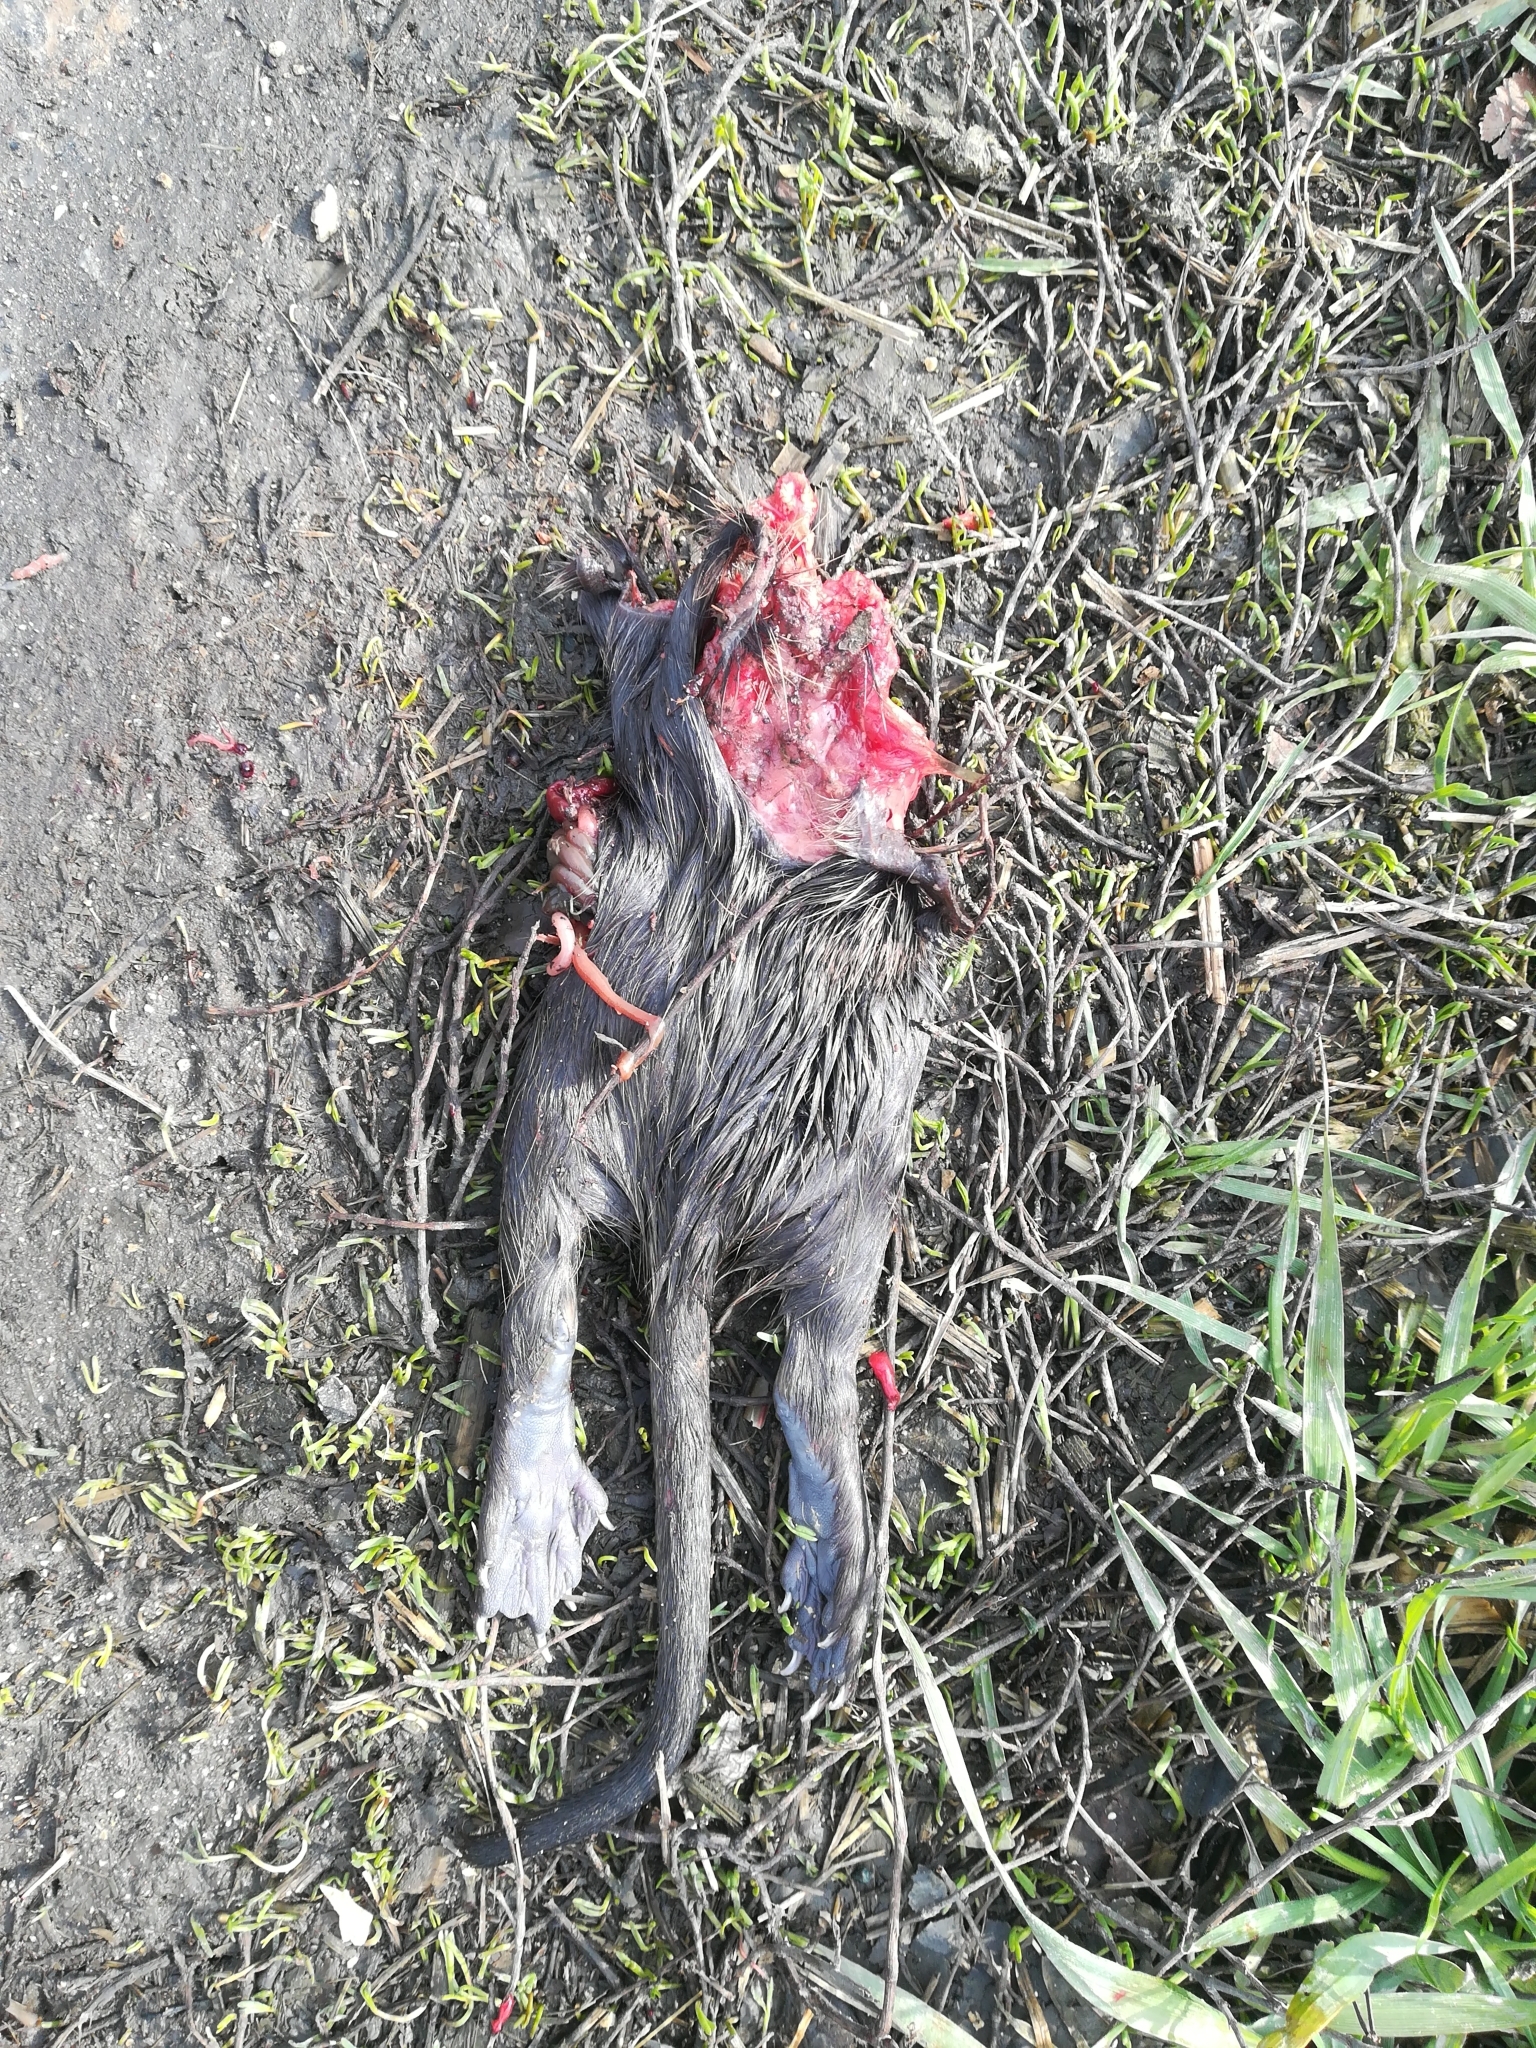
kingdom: Animalia
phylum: Chordata
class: Mammalia
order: Rodentia
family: Myocastoridae
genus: Myocastor
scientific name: Myocastor coypus
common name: Coypu
